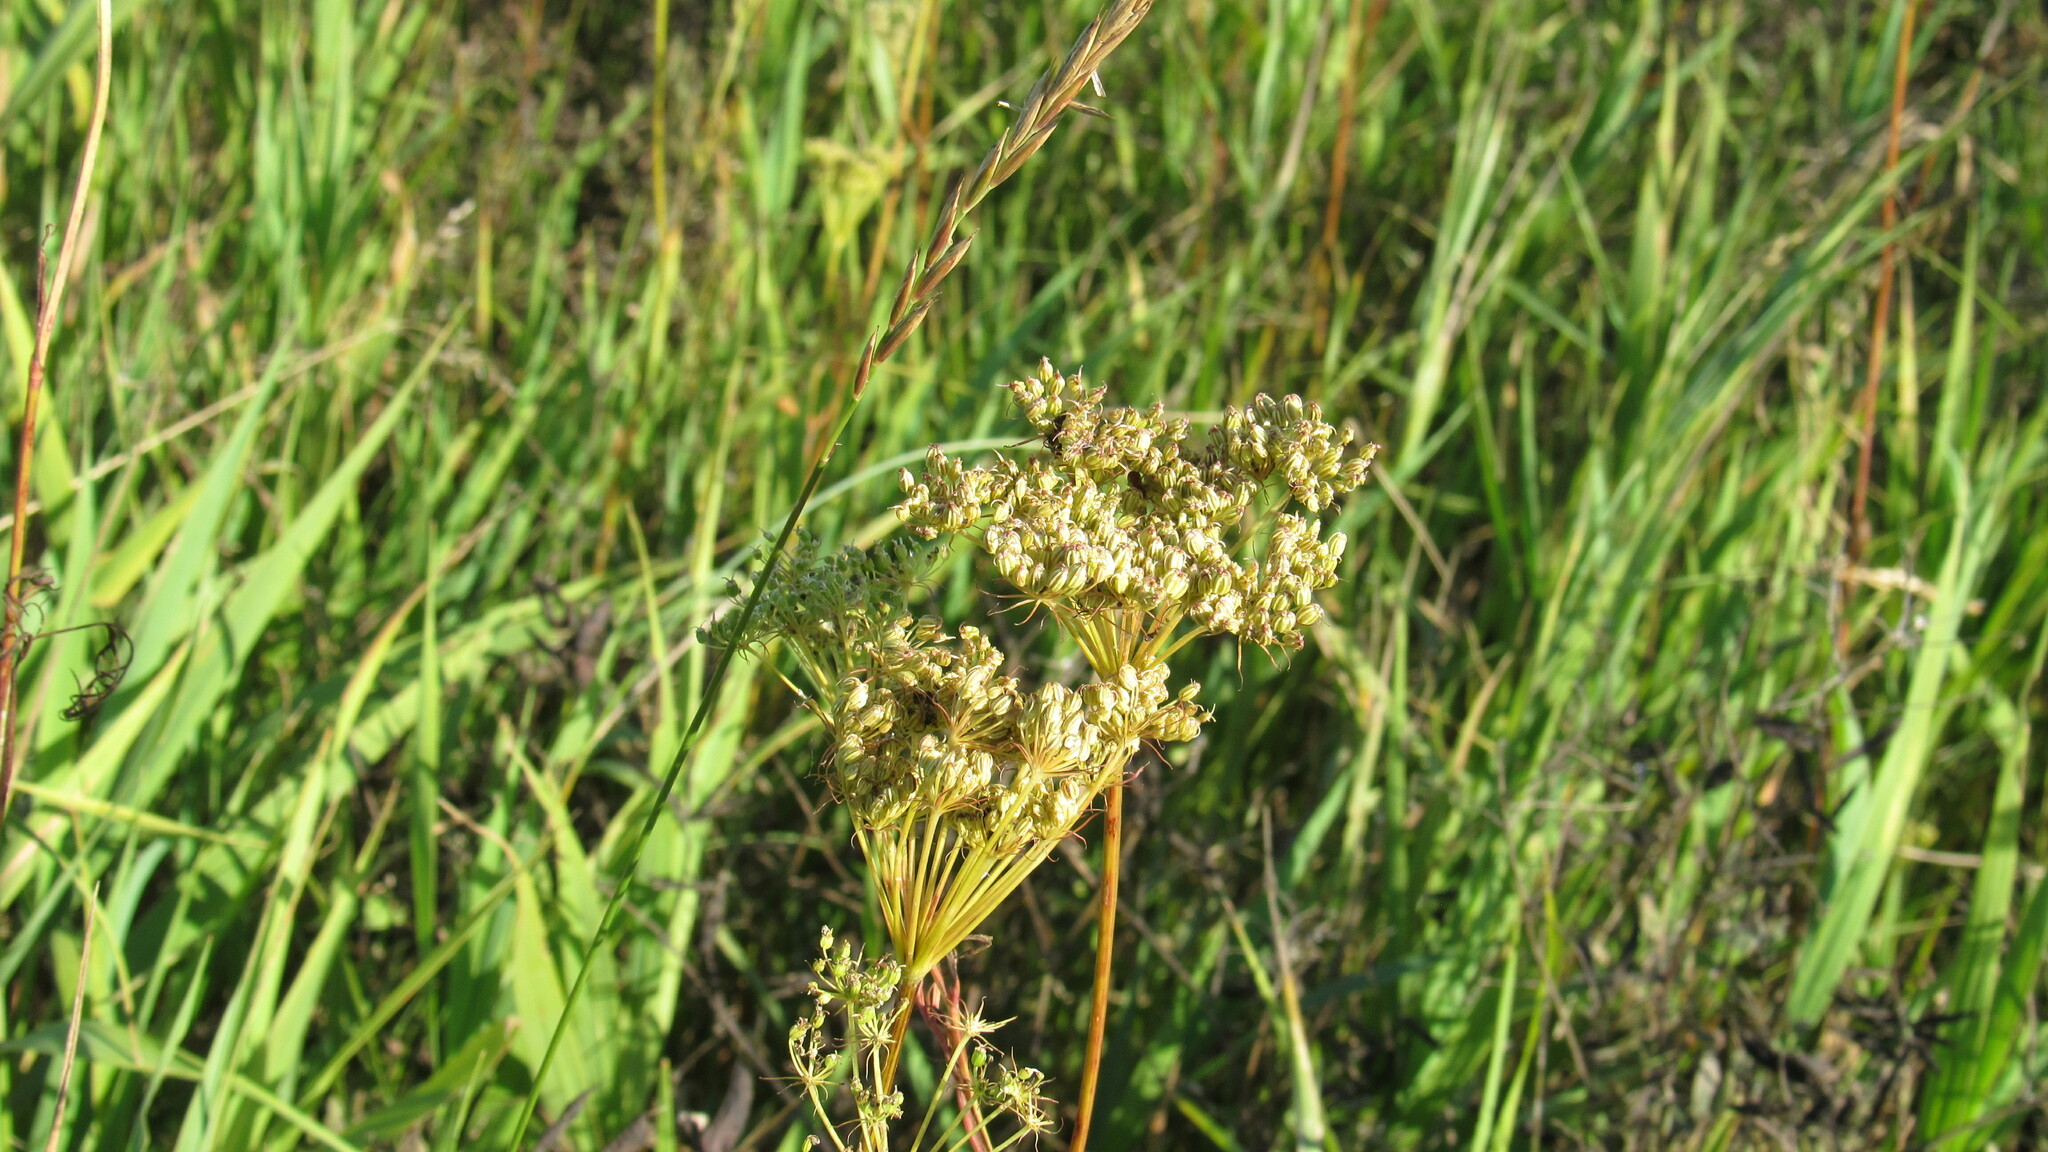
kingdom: Plantae
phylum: Tracheophyta
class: Magnoliopsida
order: Apiales
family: Apiaceae
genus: Kadenia
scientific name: Kadenia dubia
